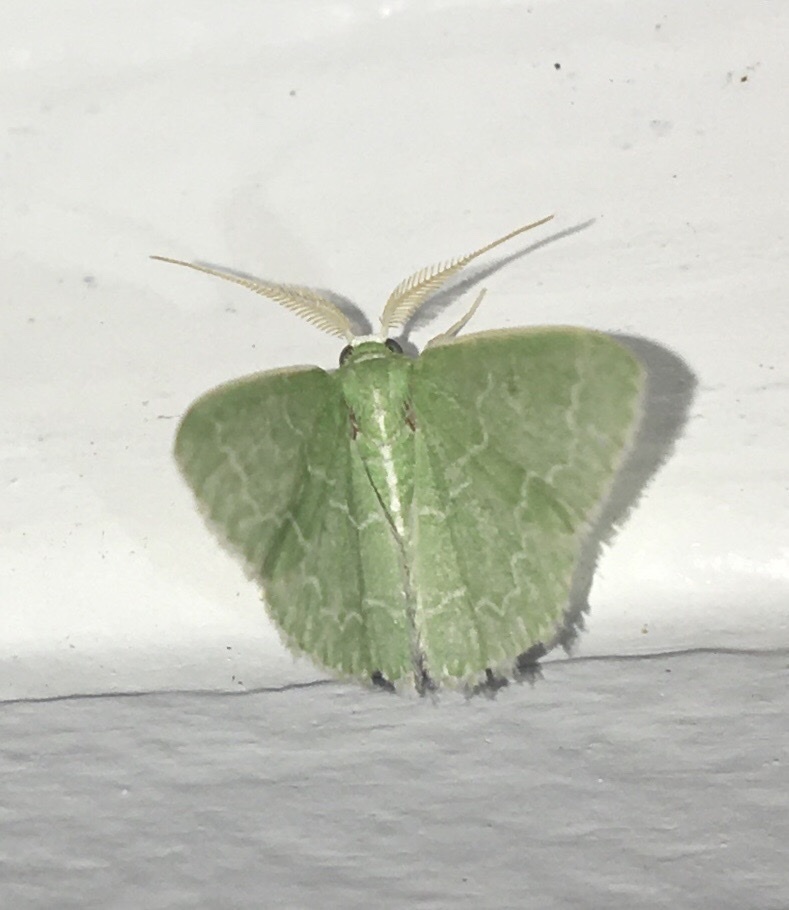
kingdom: Animalia
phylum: Arthropoda
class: Insecta
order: Lepidoptera
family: Geometridae
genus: Synchlora
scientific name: Synchlora frondaria
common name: Southern emerald
